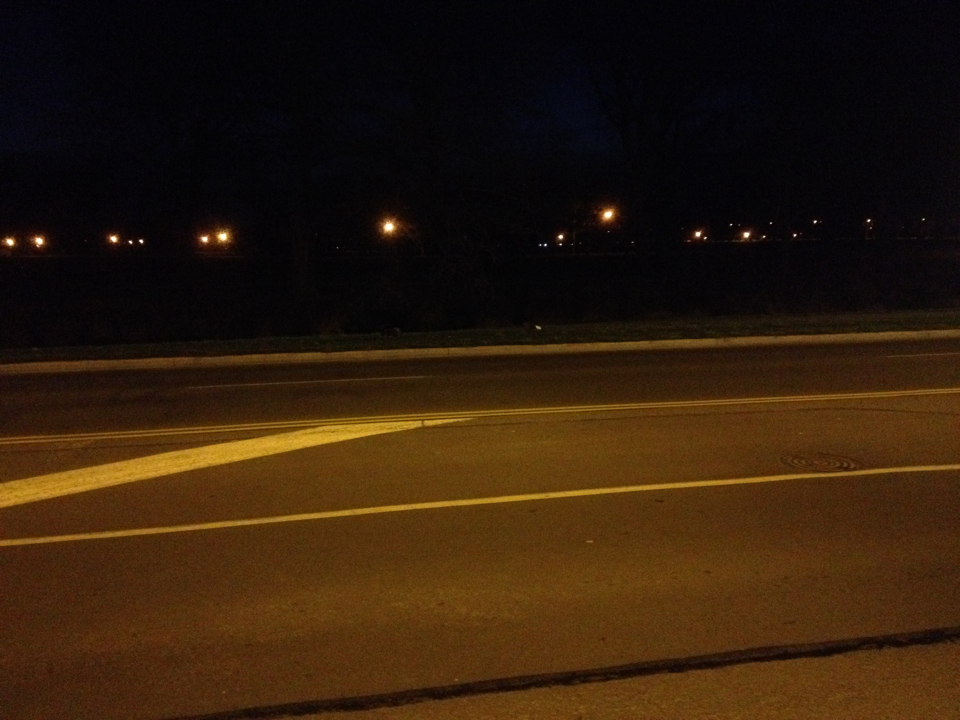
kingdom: Animalia
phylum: Chordata
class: Aves
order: Anseriformes
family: Anatidae
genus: Tadorna
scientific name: Tadorna variegata
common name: Paradise shelduck
